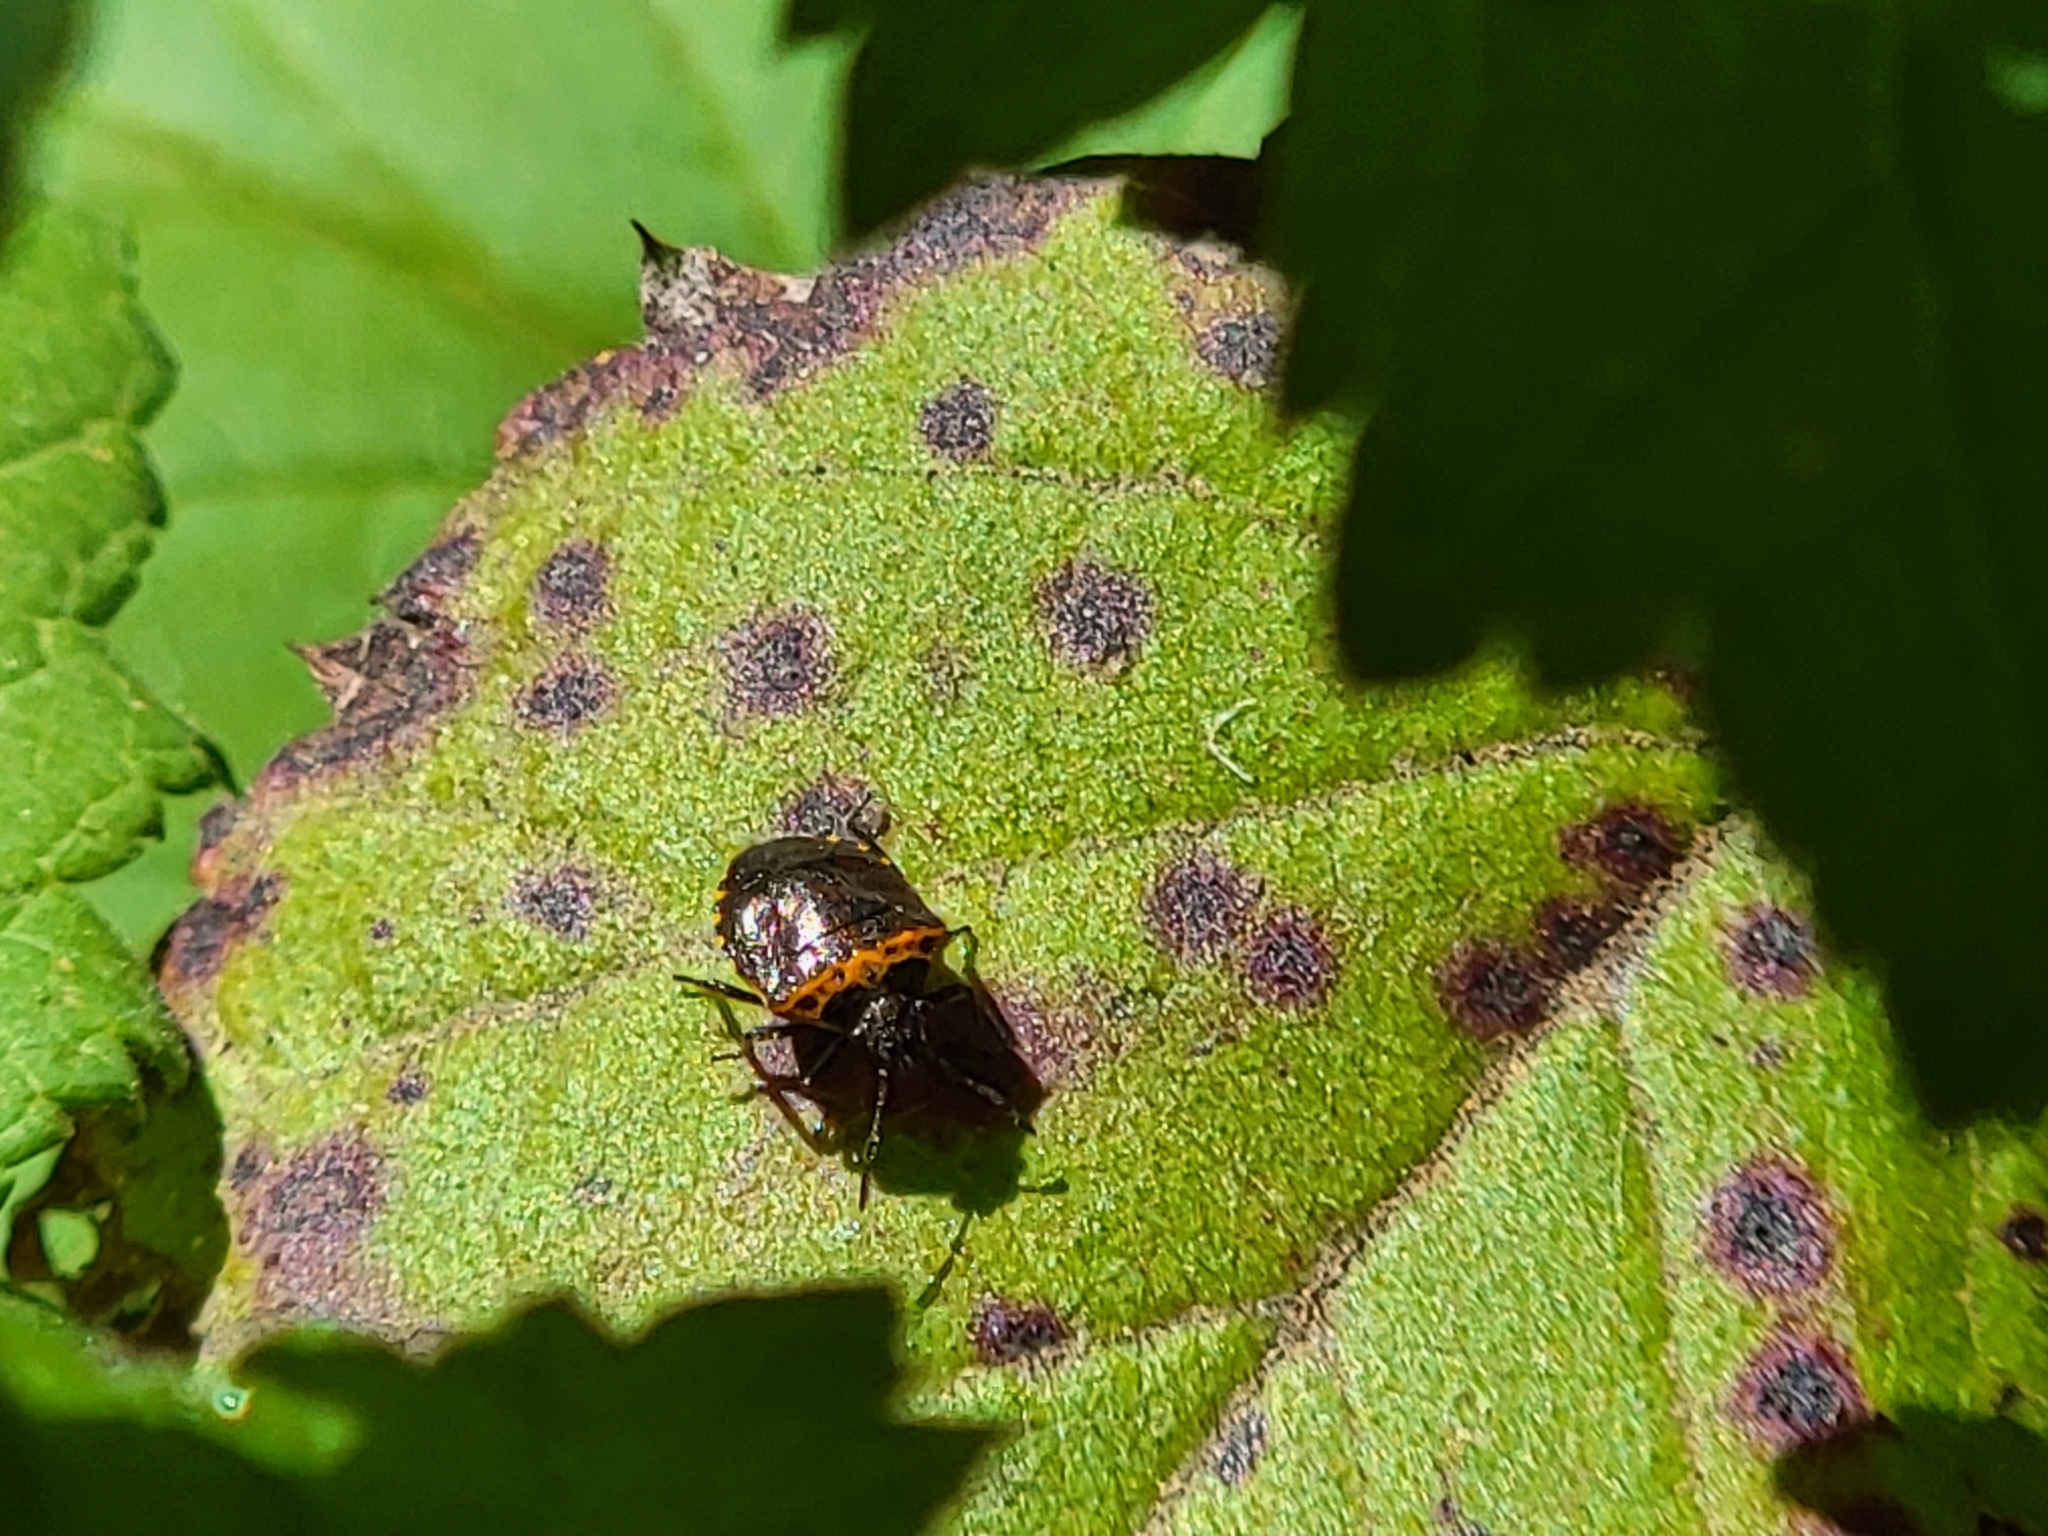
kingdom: Animalia
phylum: Arthropoda
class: Insecta
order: Hemiptera
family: Pentatomidae
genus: Cosmopepla
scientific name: Cosmopepla uhleri
